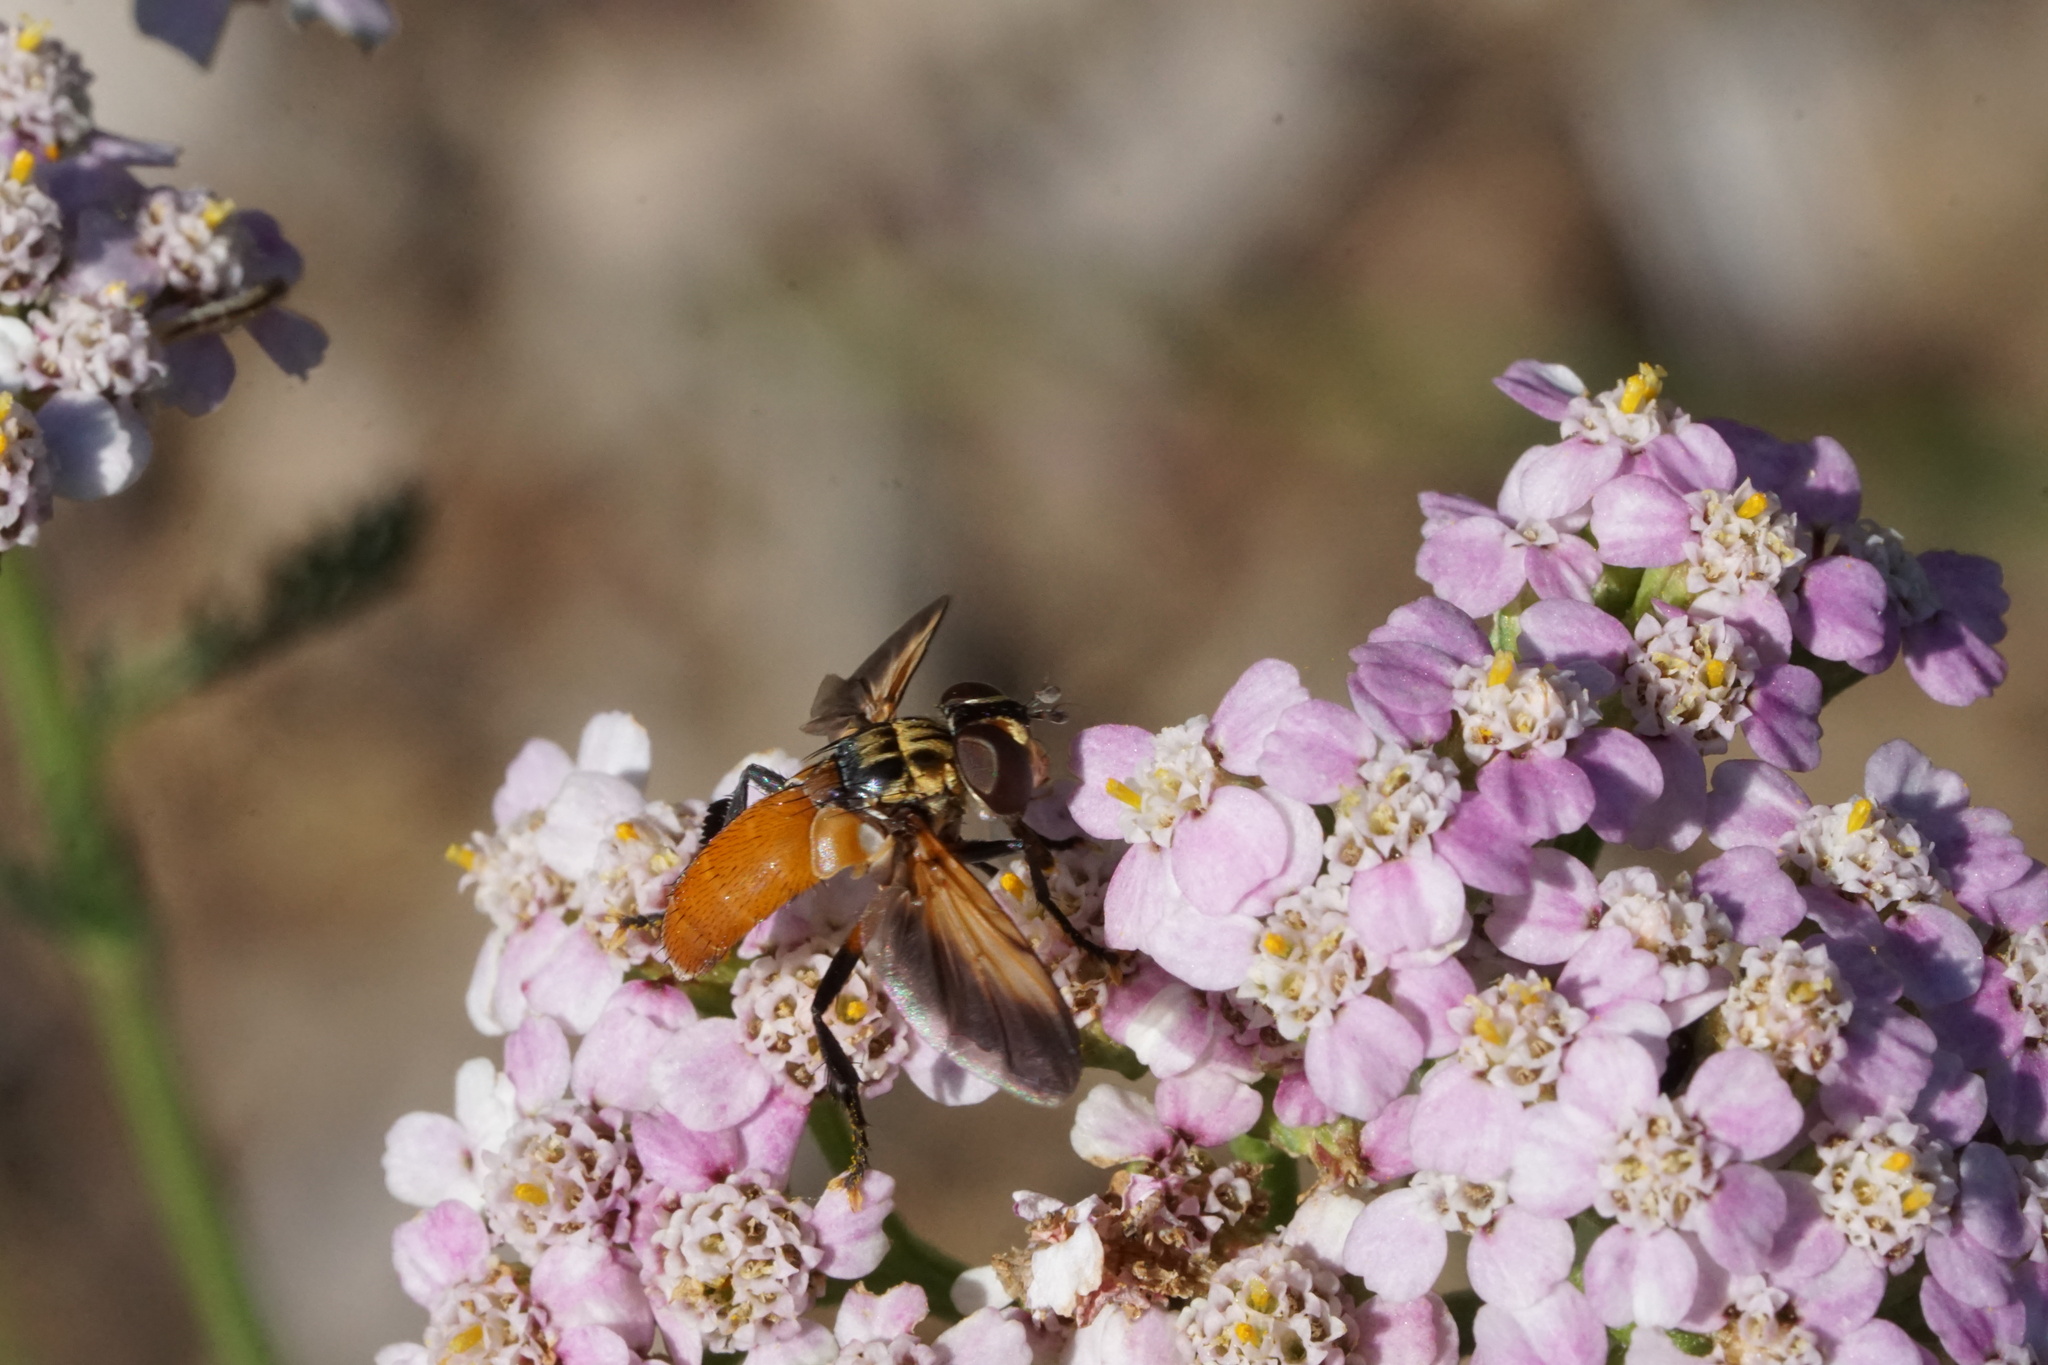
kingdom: Animalia
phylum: Arthropoda
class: Insecta
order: Diptera
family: Tachinidae
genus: Trichopoda
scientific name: Trichopoda pennipes
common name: Tachinid fly
